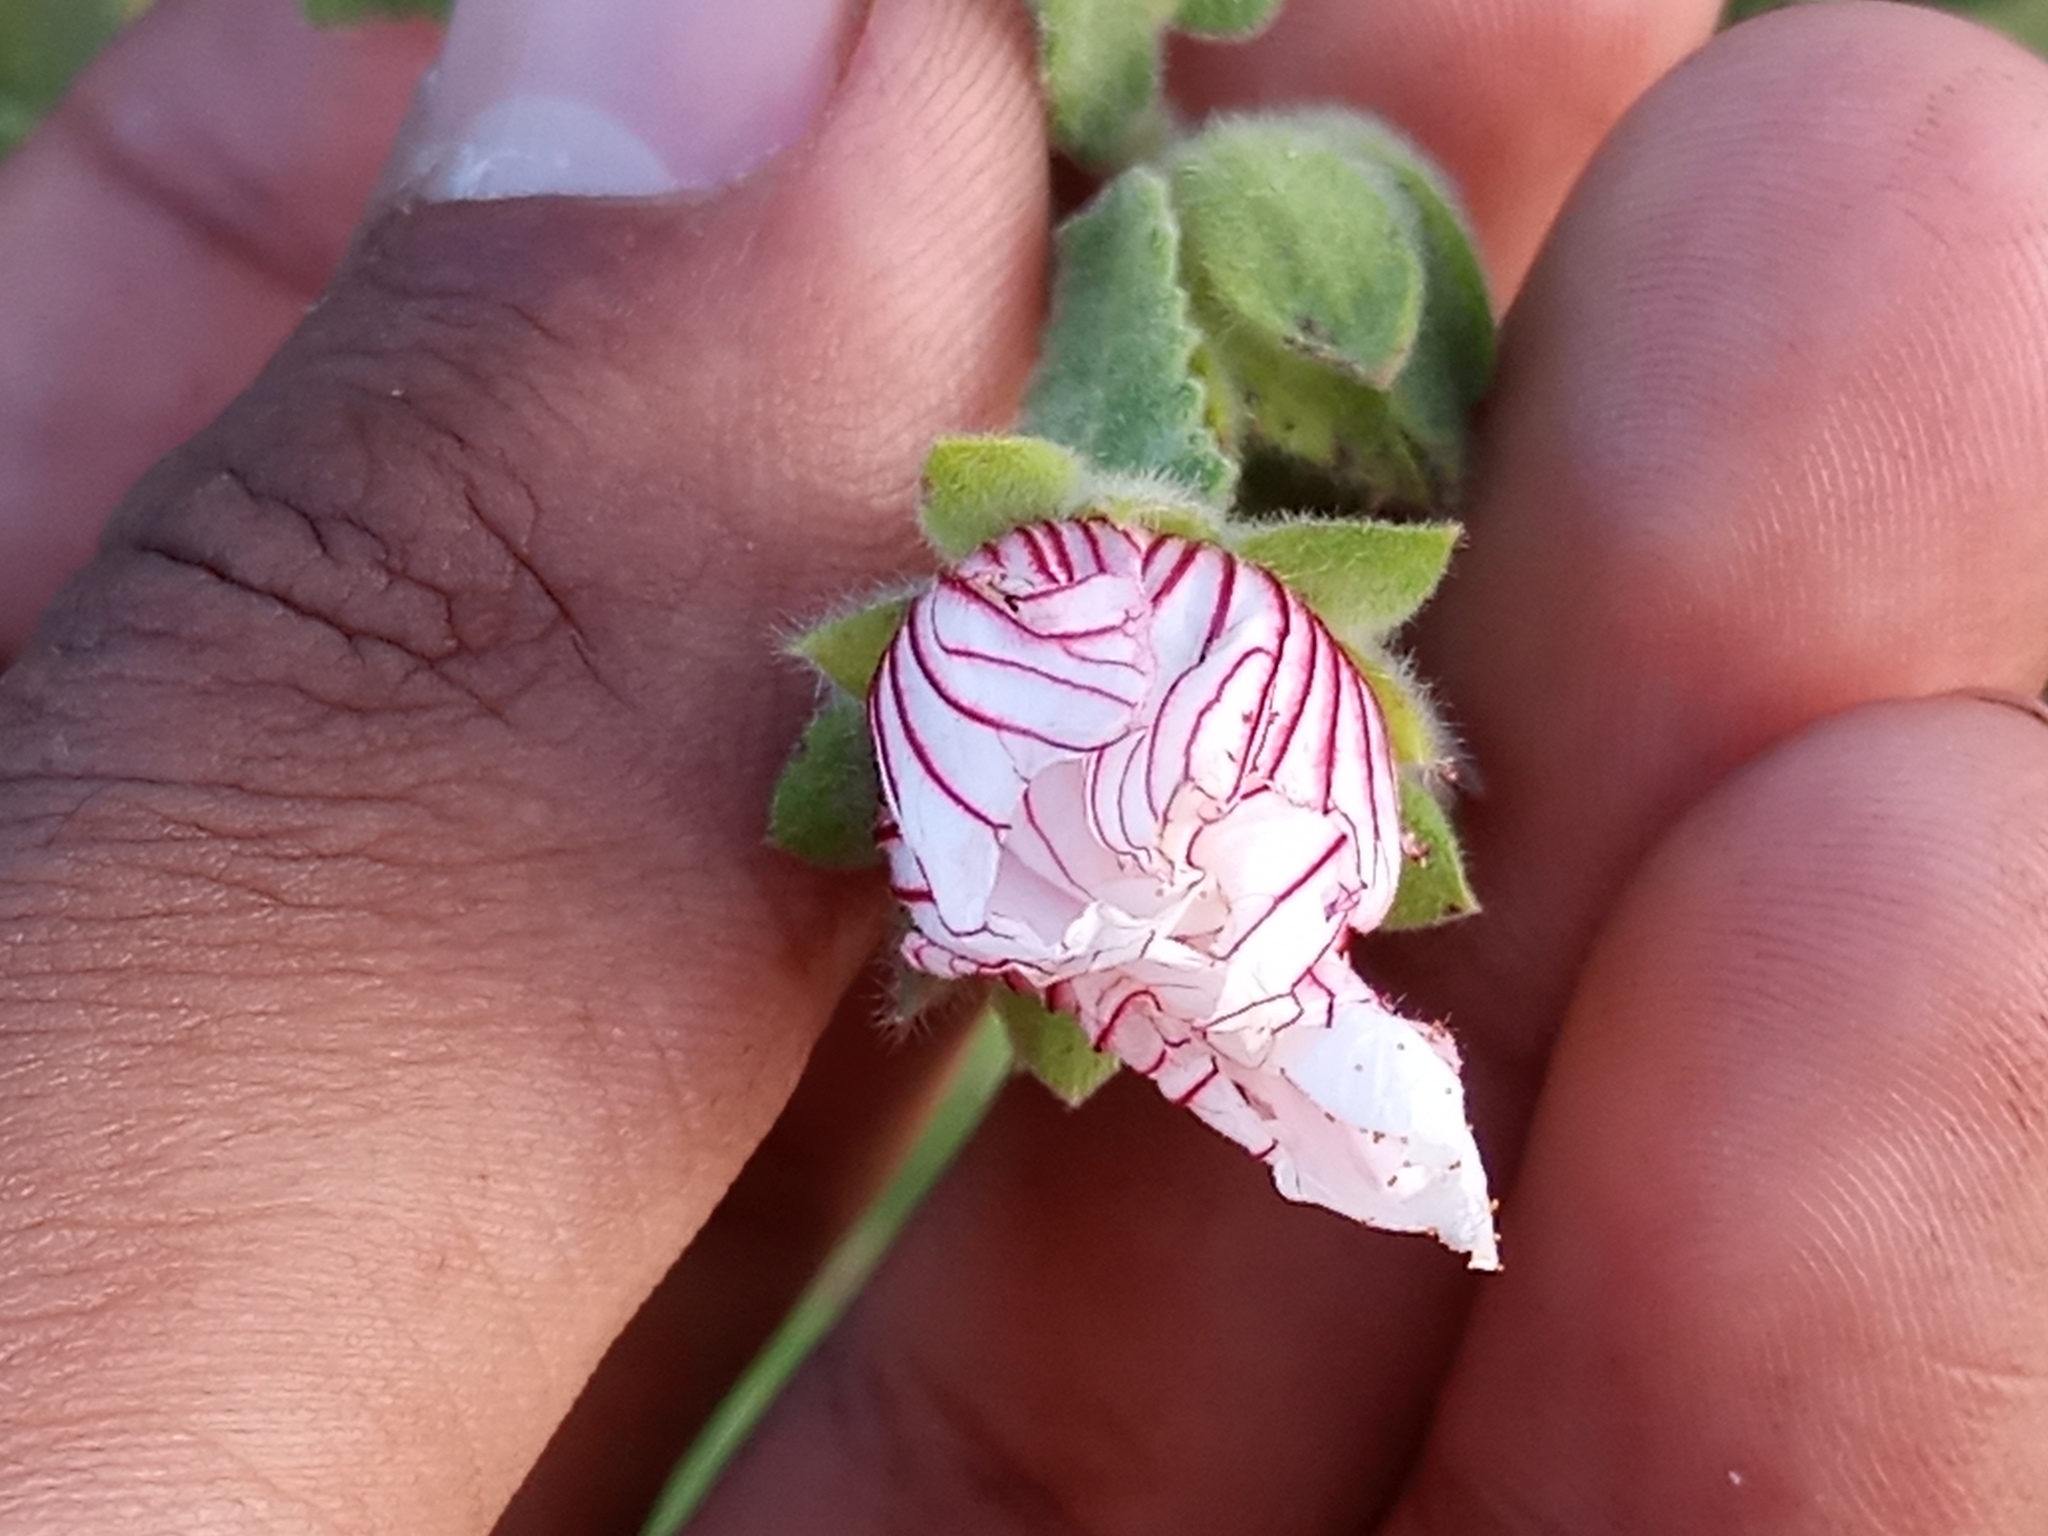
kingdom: Plantae
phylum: Tracheophyta
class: Magnoliopsida
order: Malvales
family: Malvaceae
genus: Pavonia
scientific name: Pavonia distinguenda
